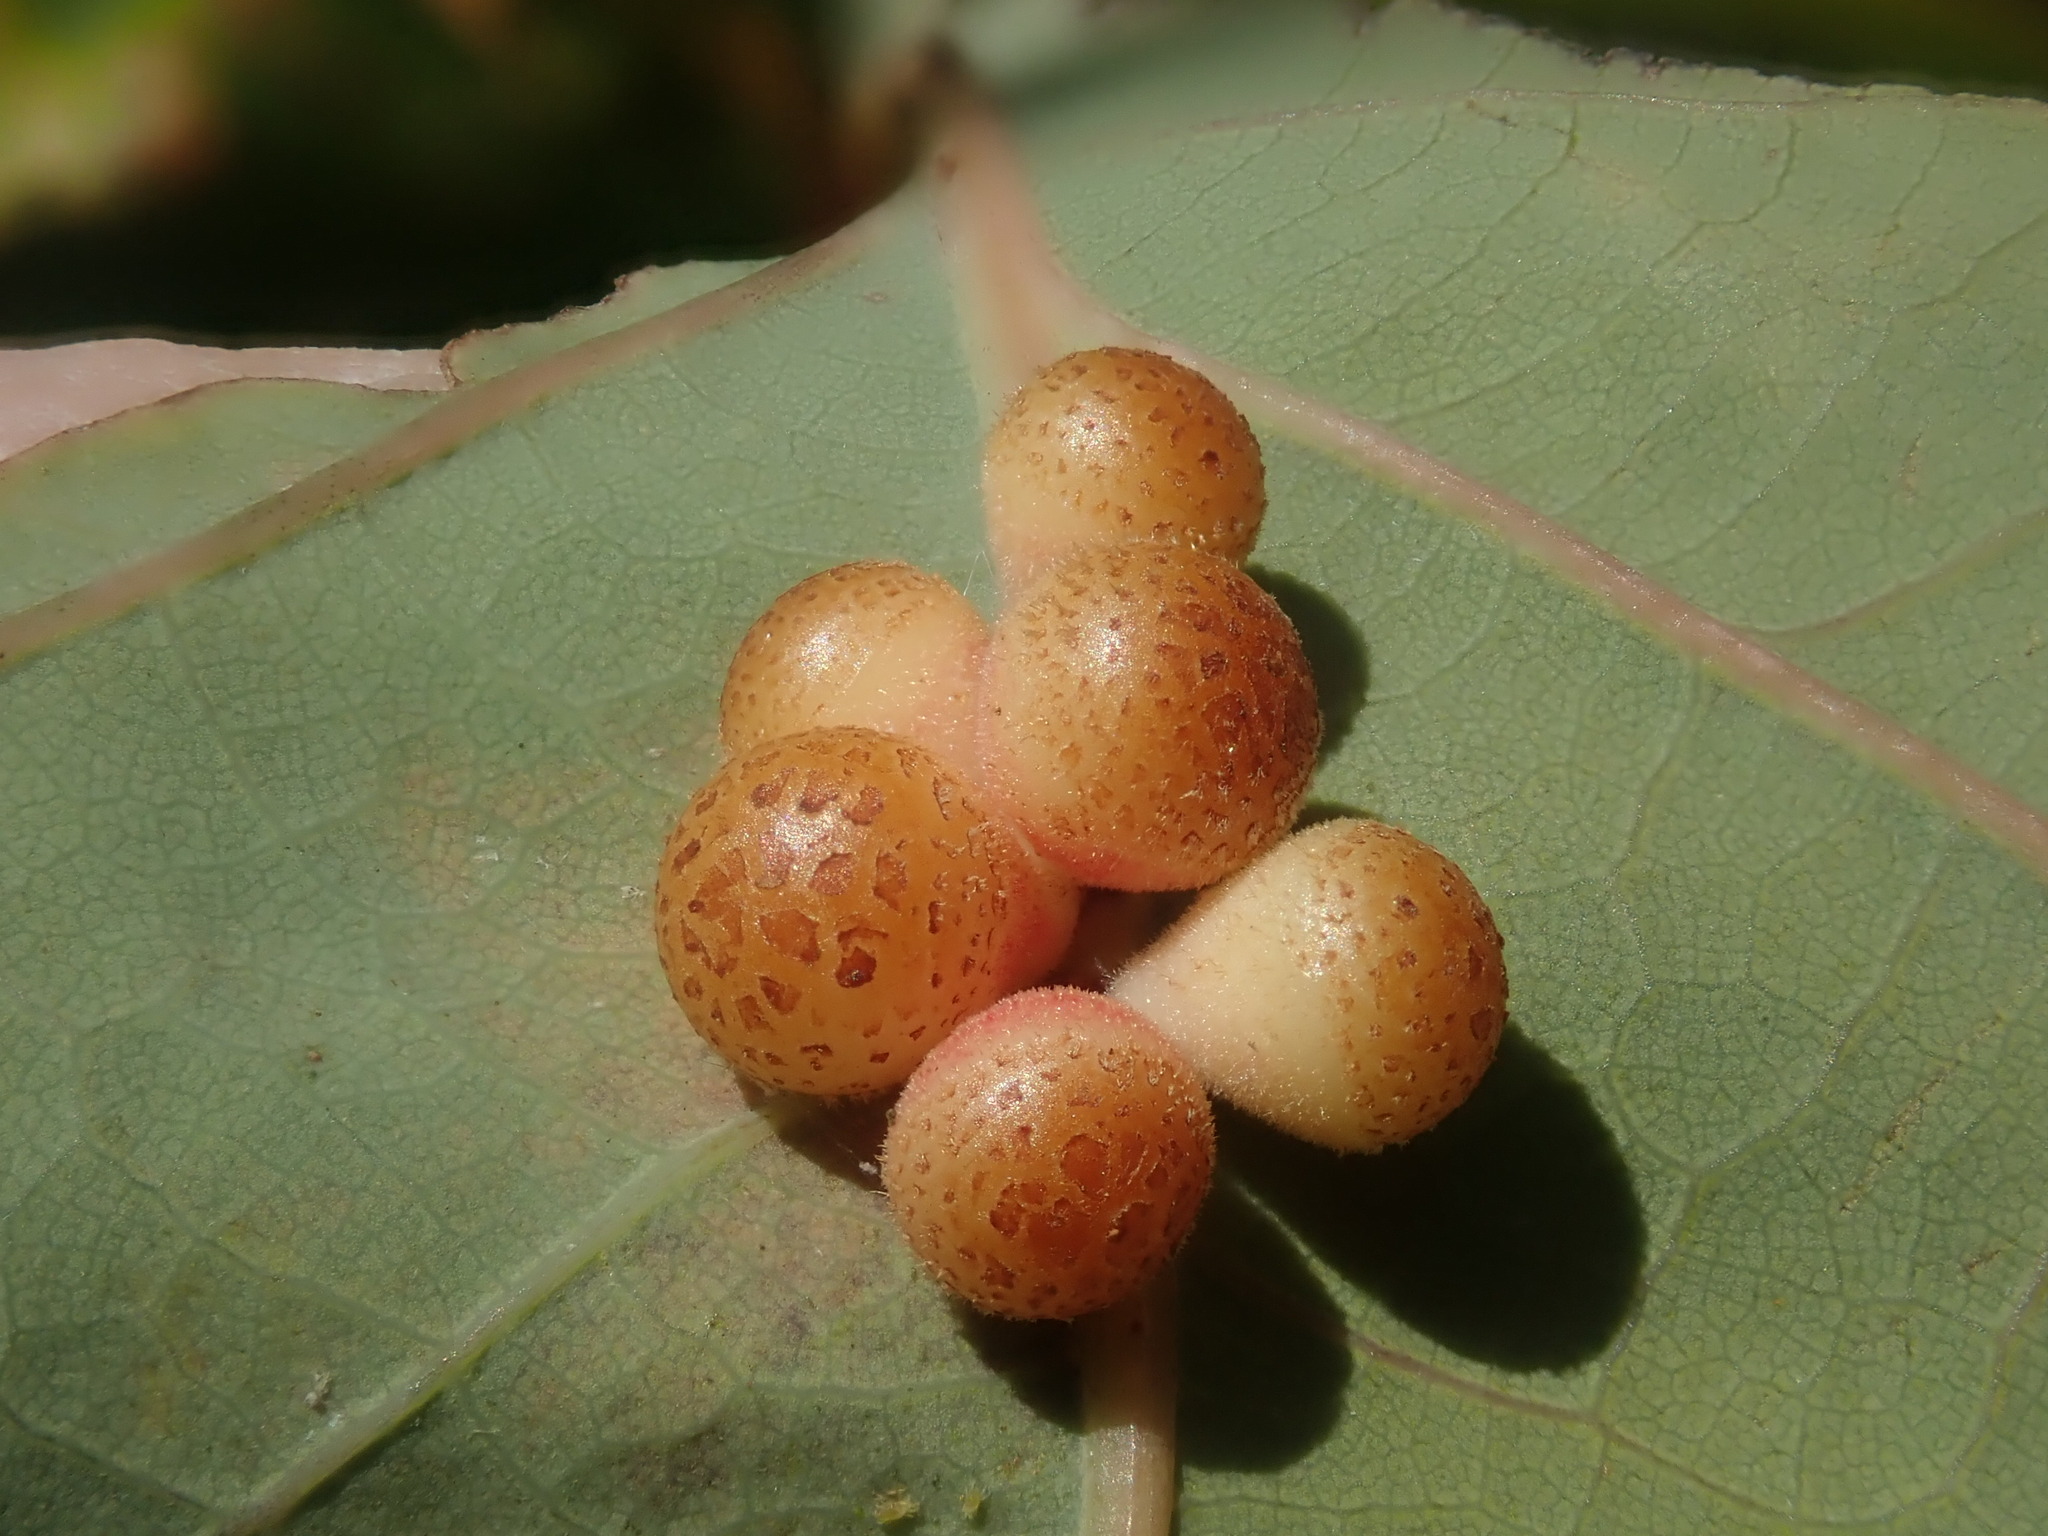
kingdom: Animalia
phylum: Arthropoda
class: Insecta
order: Hymenoptera
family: Cynipidae
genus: Andricus
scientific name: Andricus
